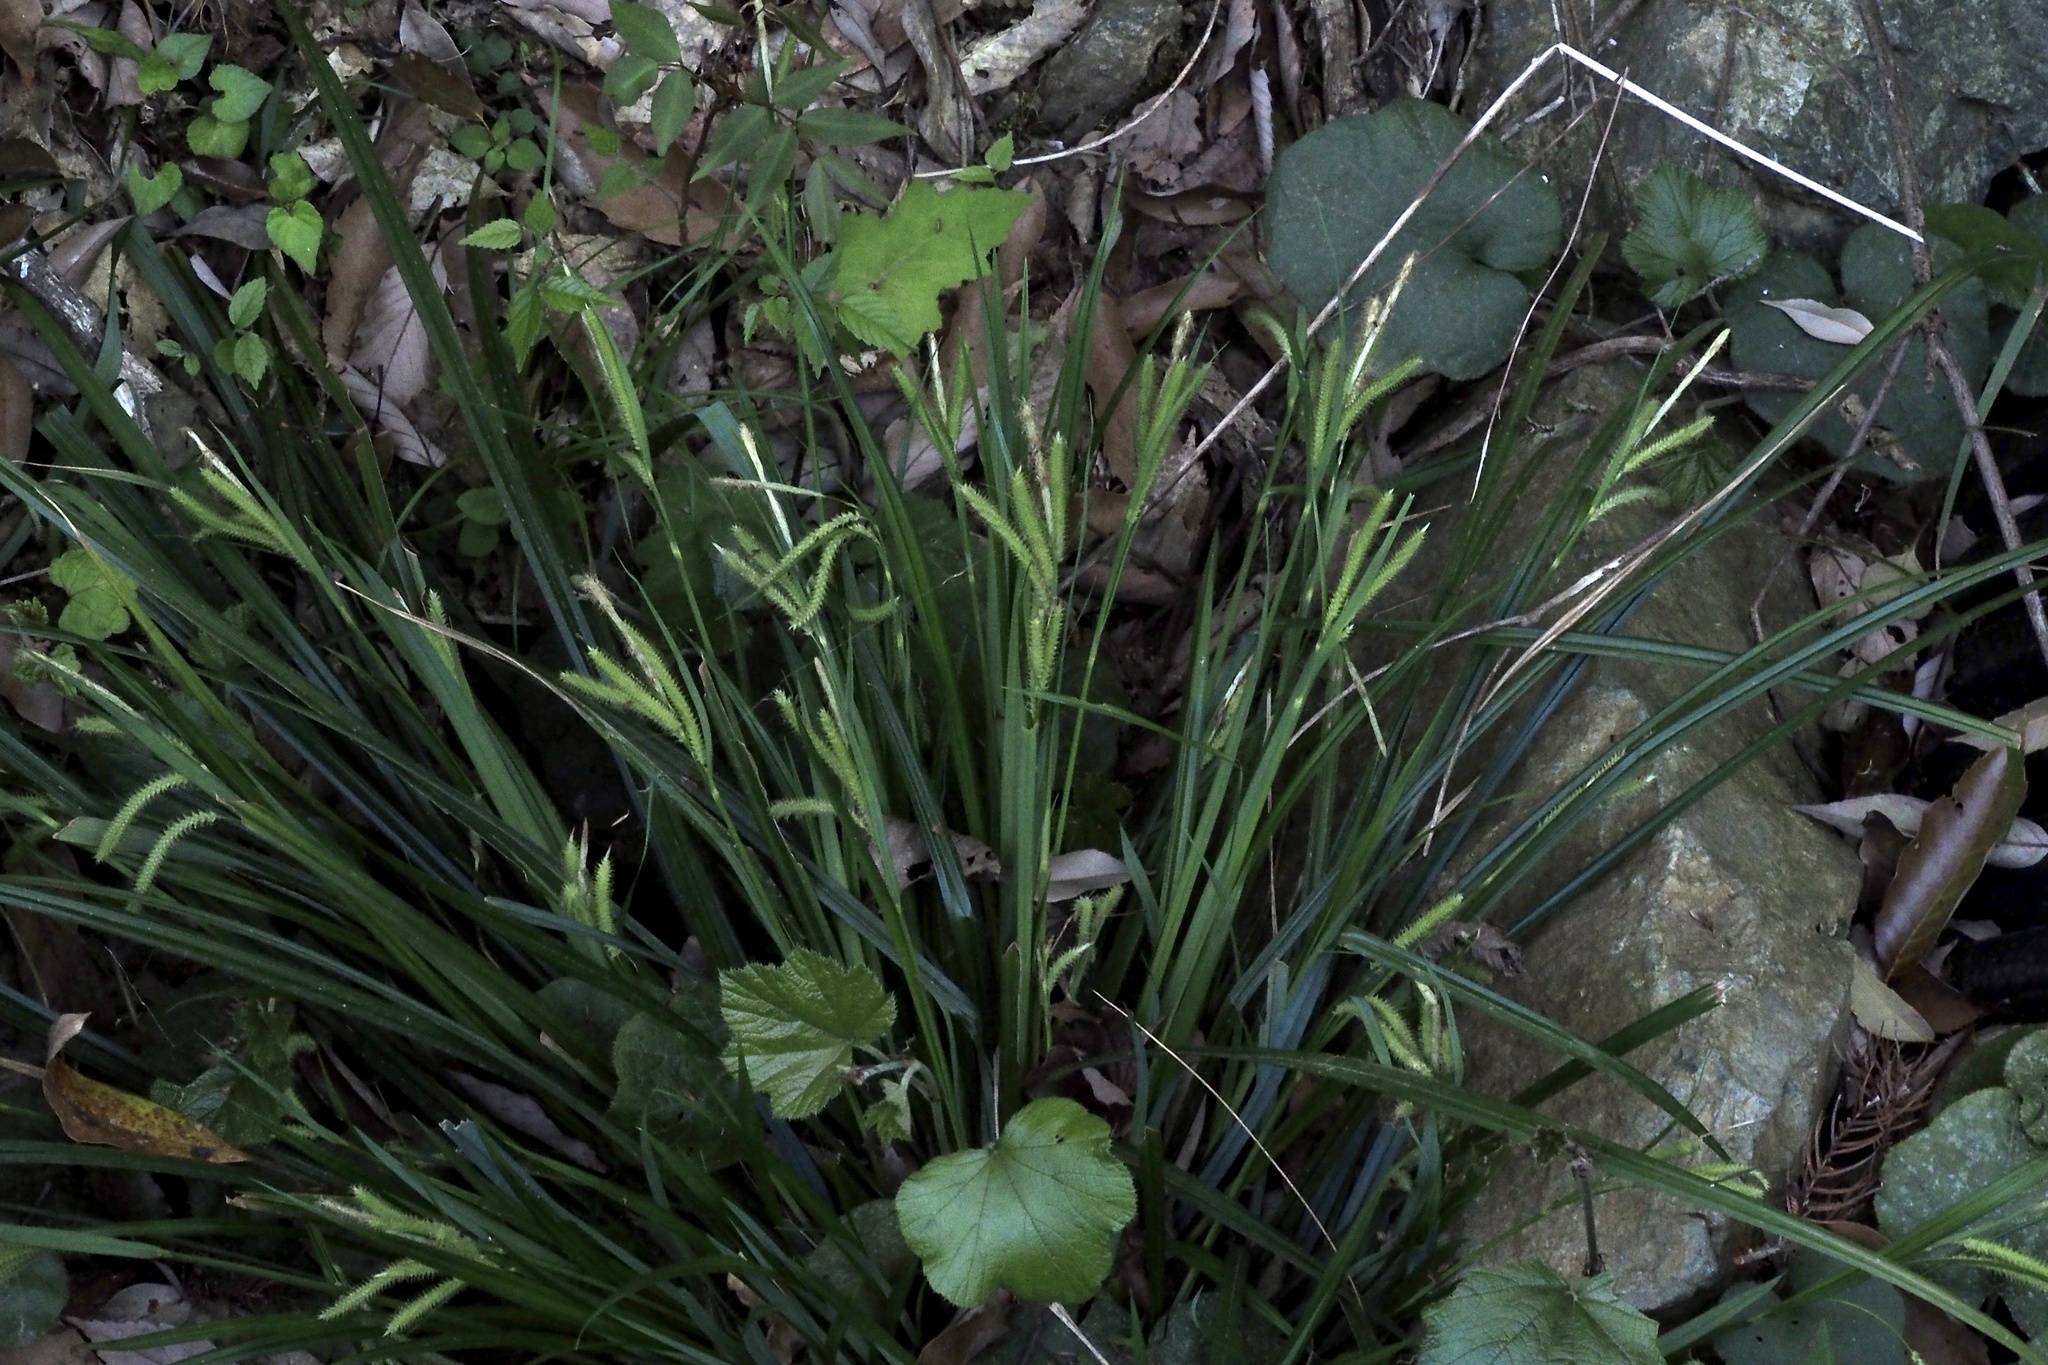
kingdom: Plantae
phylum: Tracheophyta
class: Liliopsida
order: Poales
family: Cyperaceae
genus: Carex
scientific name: Carex flabellata
